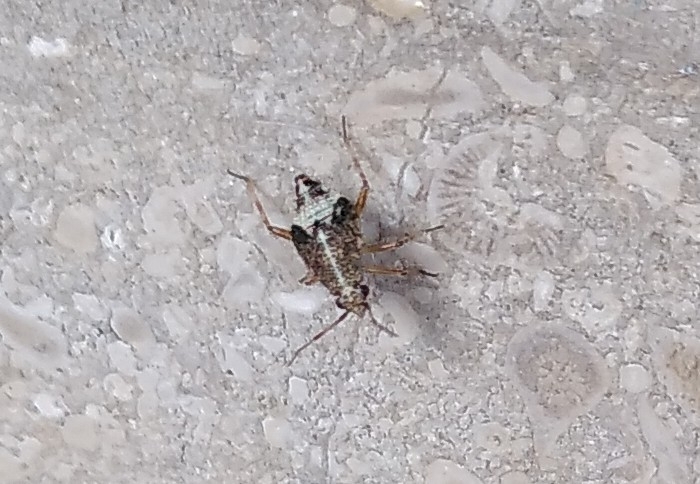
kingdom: Animalia
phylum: Arthropoda
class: Insecta
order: Hemiptera
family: Miridae
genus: Deraeocoris
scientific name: Deraeocoris flavilinea
